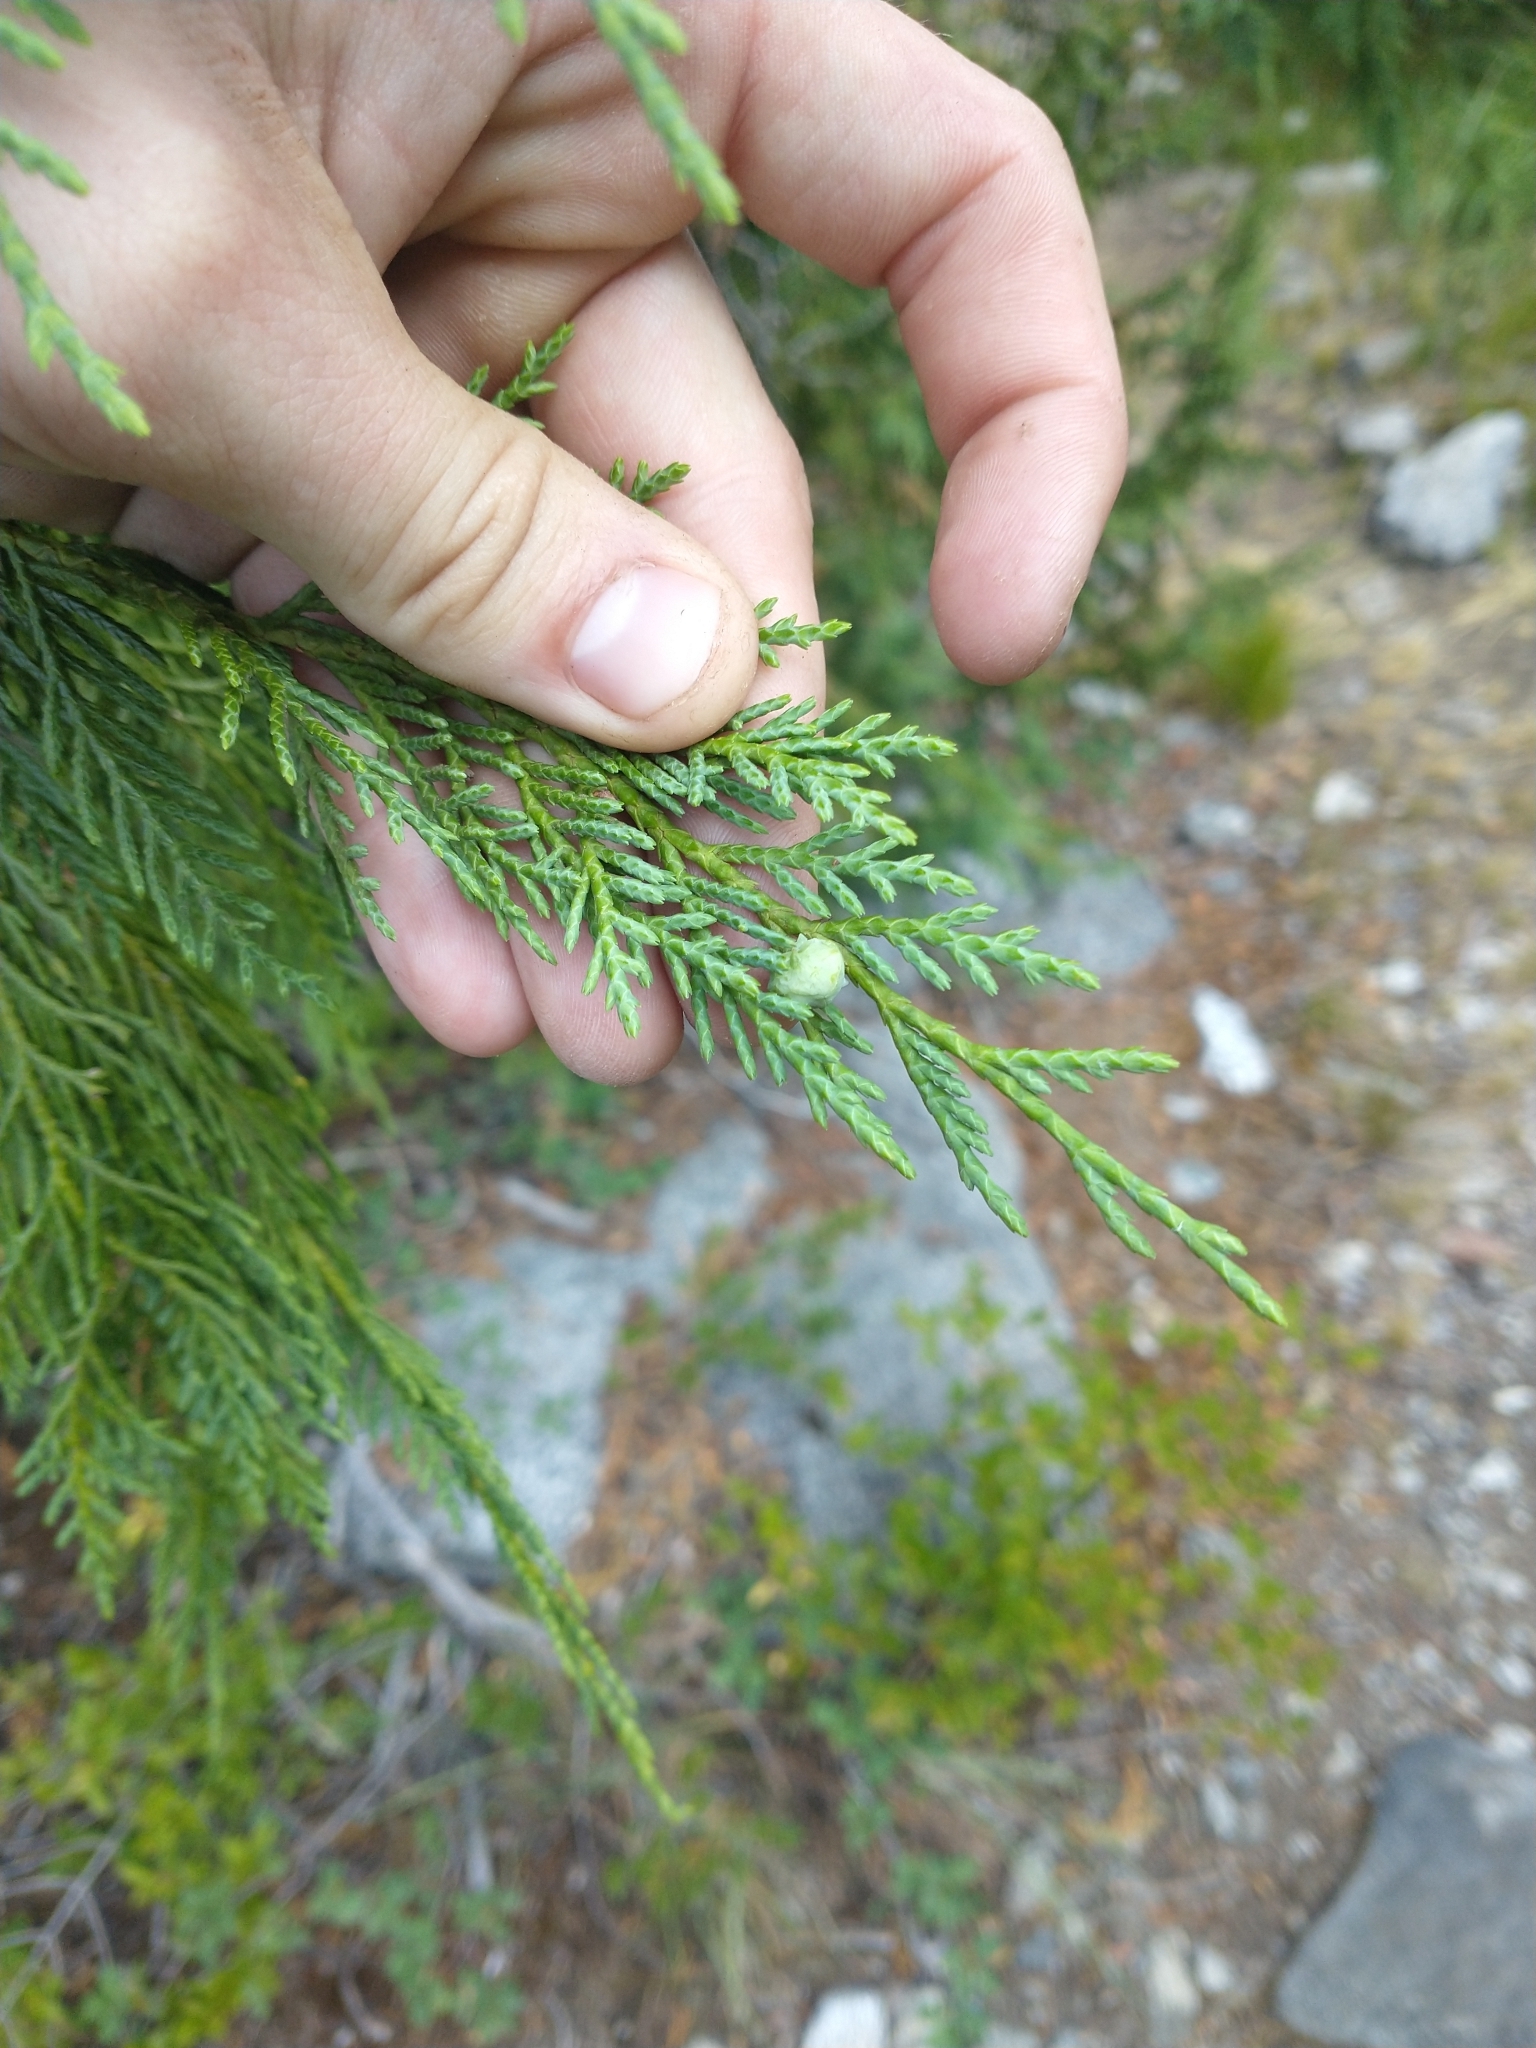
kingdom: Plantae
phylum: Tracheophyta
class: Pinopsida
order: Pinales
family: Cupressaceae
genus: Xanthocyparis
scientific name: Xanthocyparis nootkatensis
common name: Nootka cypress
